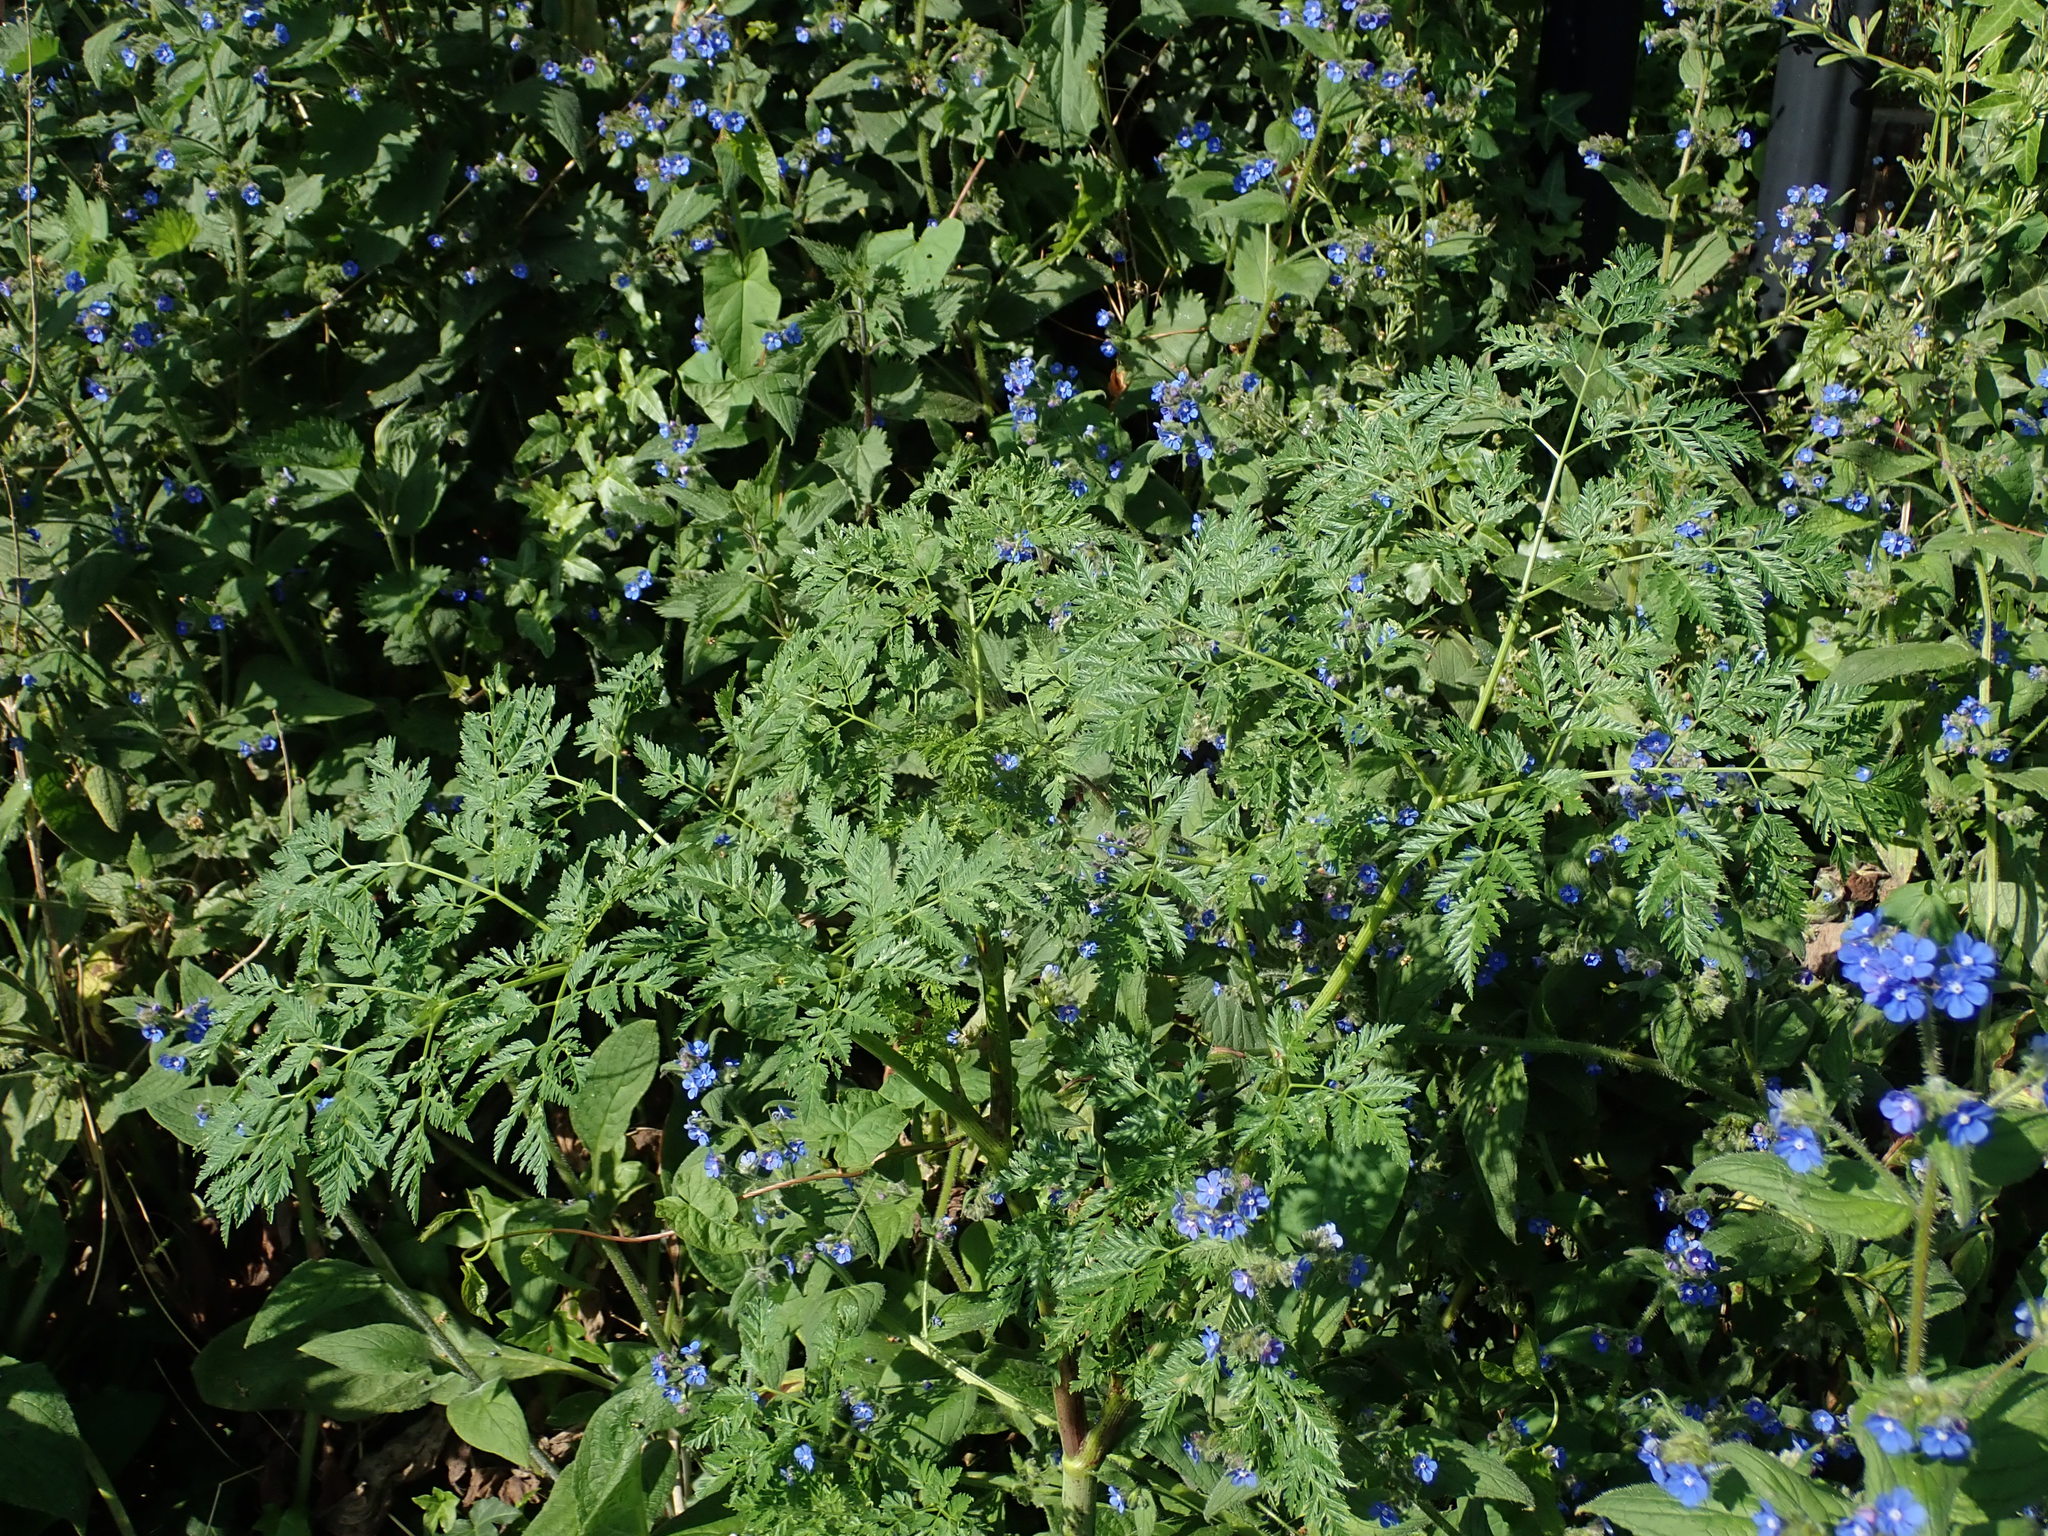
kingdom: Plantae
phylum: Tracheophyta
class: Magnoliopsida
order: Apiales
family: Apiaceae
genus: Conium
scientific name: Conium maculatum
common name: Hemlock
